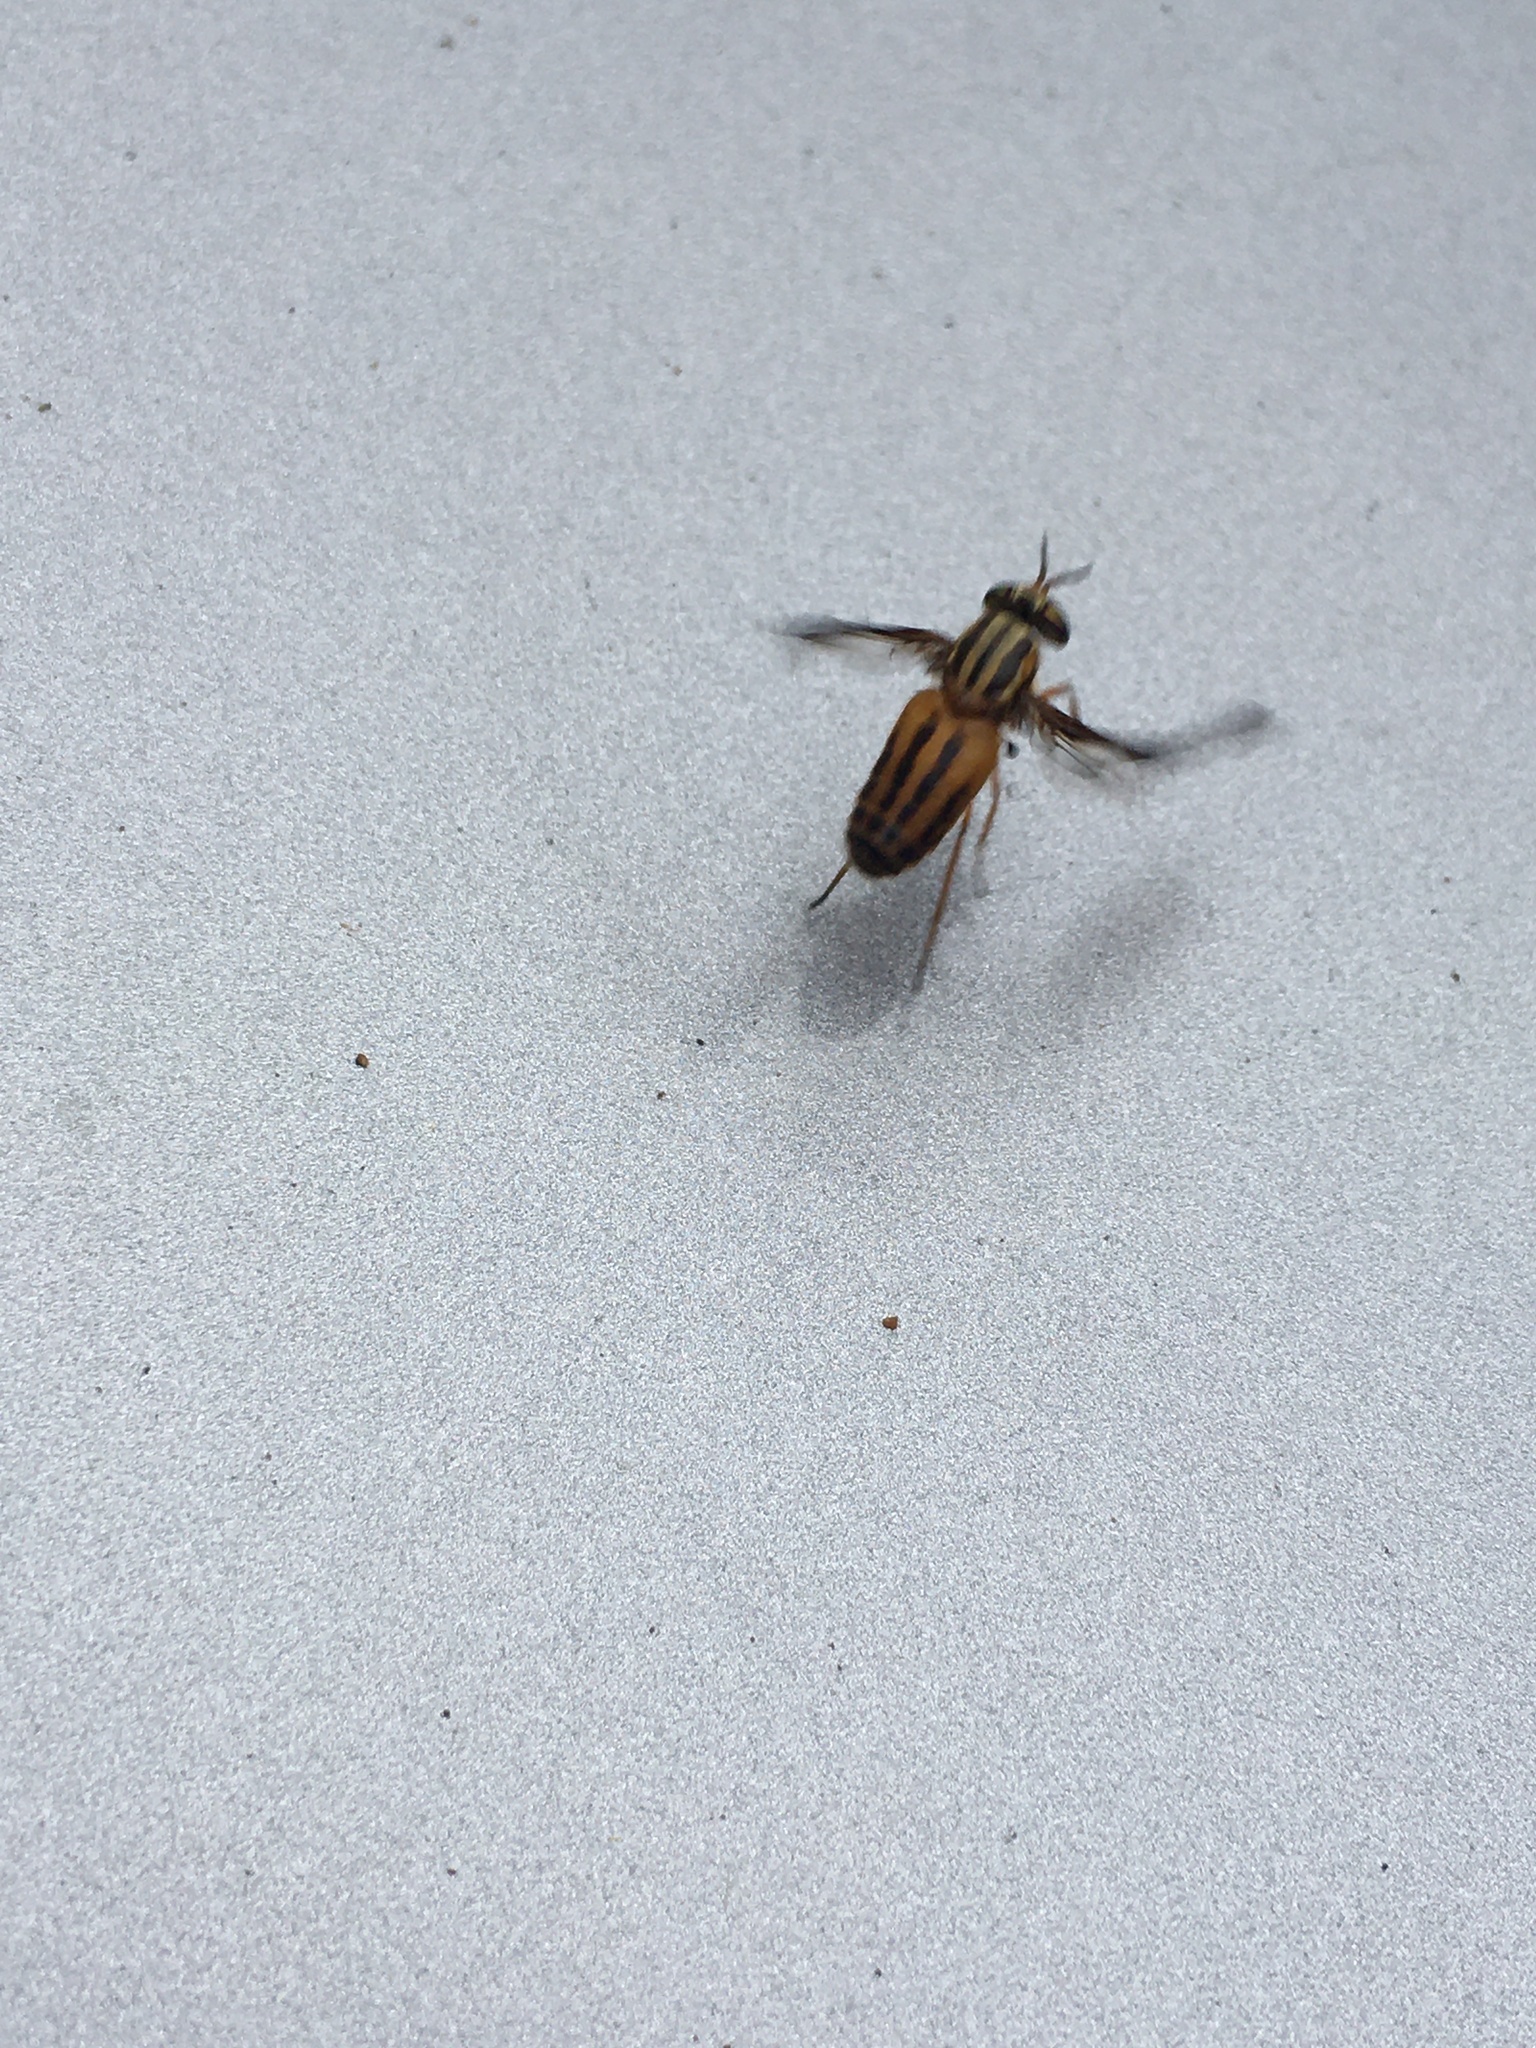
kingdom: Animalia
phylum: Arthropoda
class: Insecta
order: Diptera
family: Tabanidae
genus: Chrysops
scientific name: Chrysops vittatus
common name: Striped deer fly
